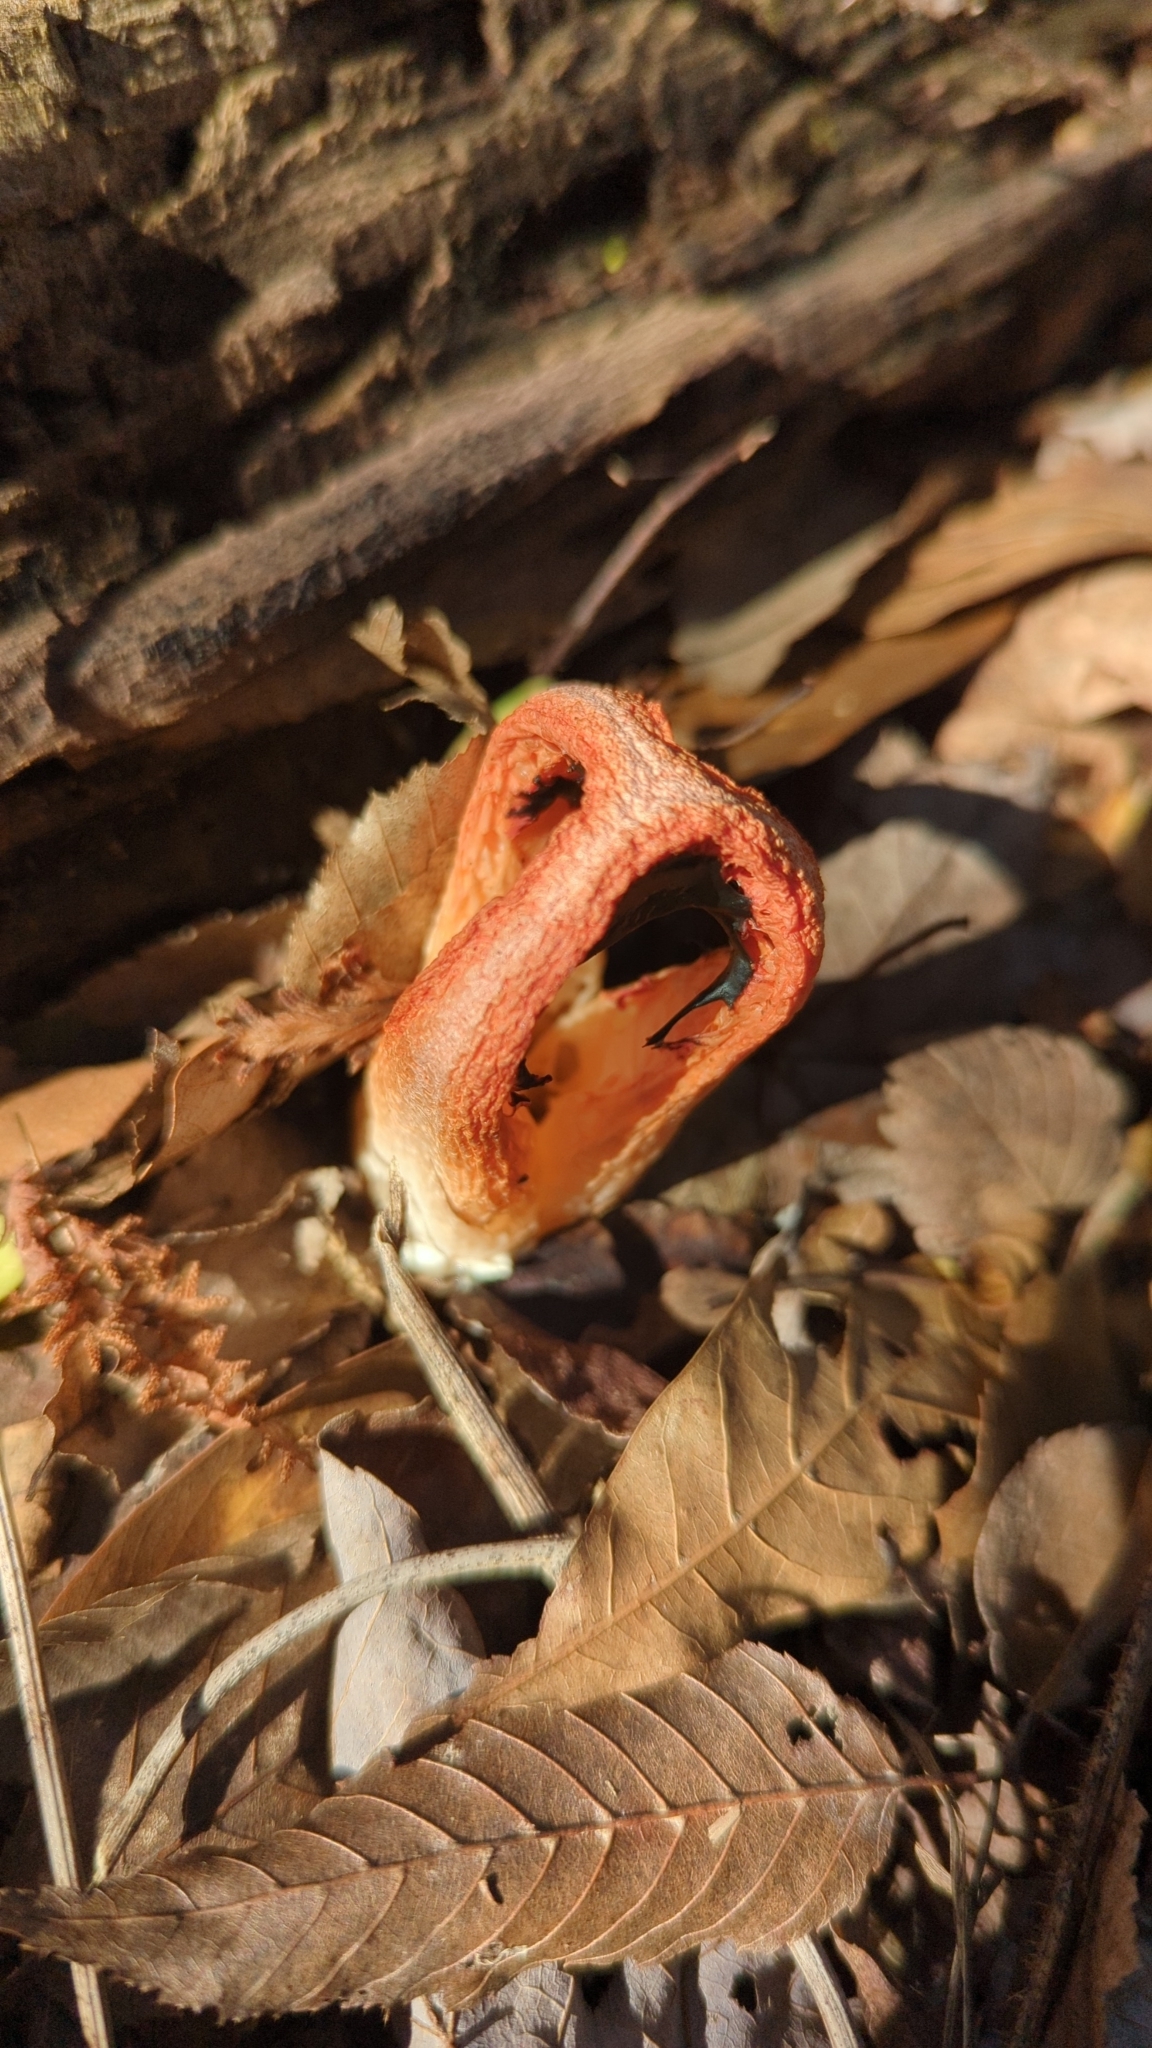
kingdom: Fungi
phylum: Basidiomycota
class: Agaricomycetes
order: Phallales
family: Phallaceae
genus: Clathrus
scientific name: Clathrus columnatus
